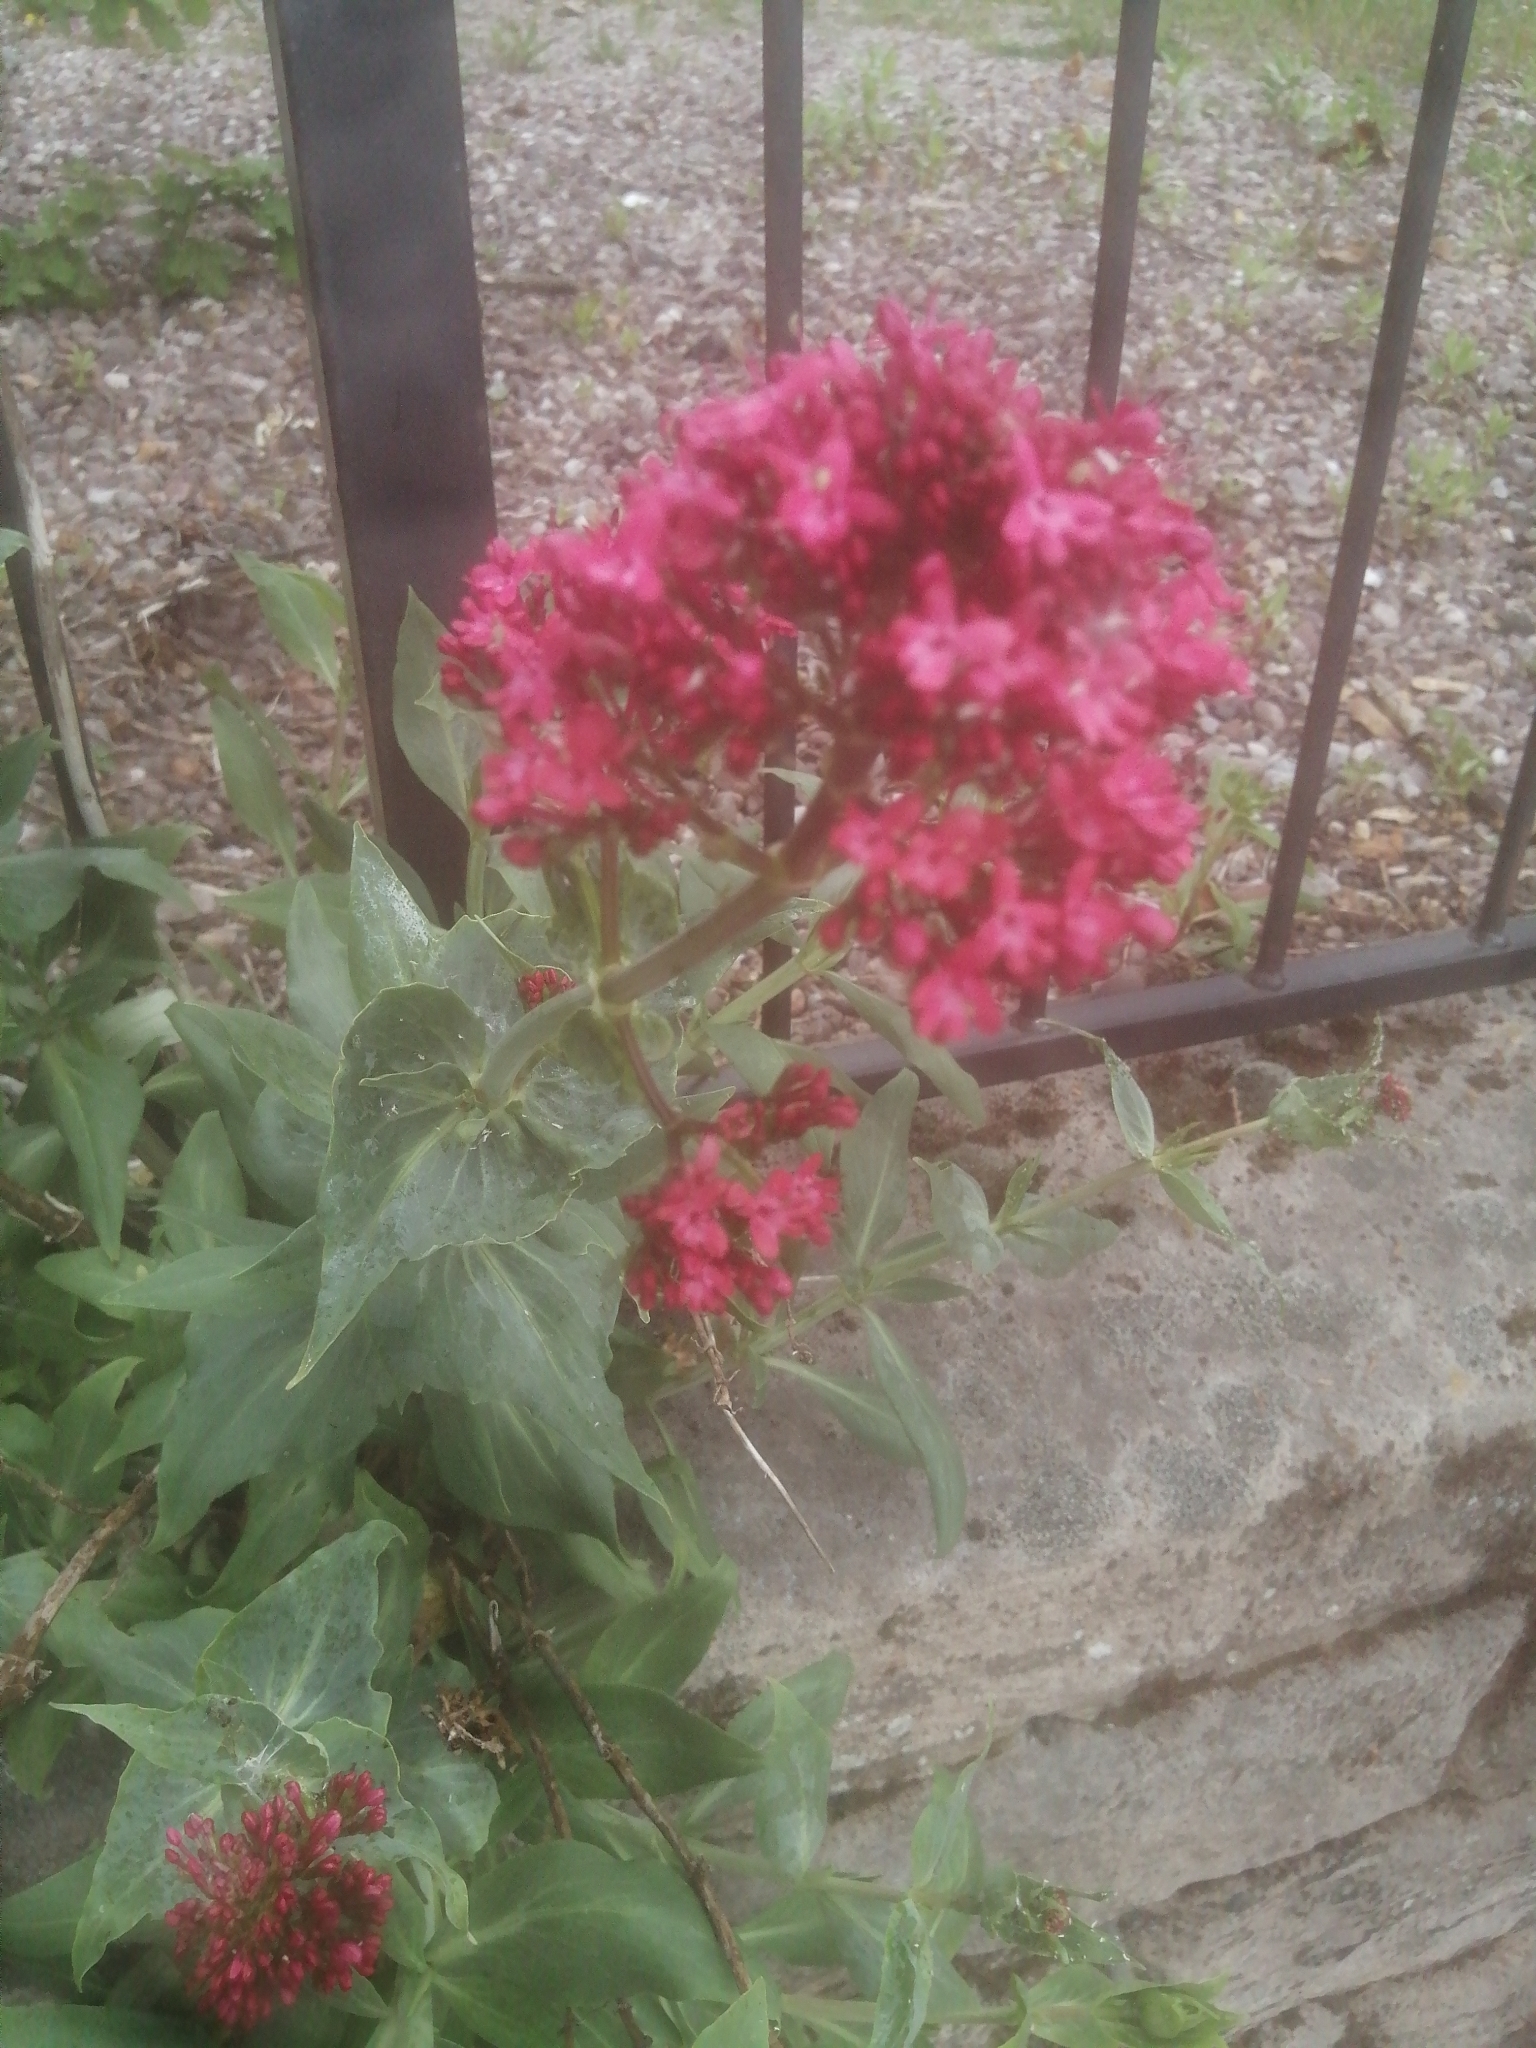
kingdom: Plantae
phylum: Tracheophyta
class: Magnoliopsida
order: Dipsacales
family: Caprifoliaceae
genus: Centranthus
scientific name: Centranthus ruber
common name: Red valerian
